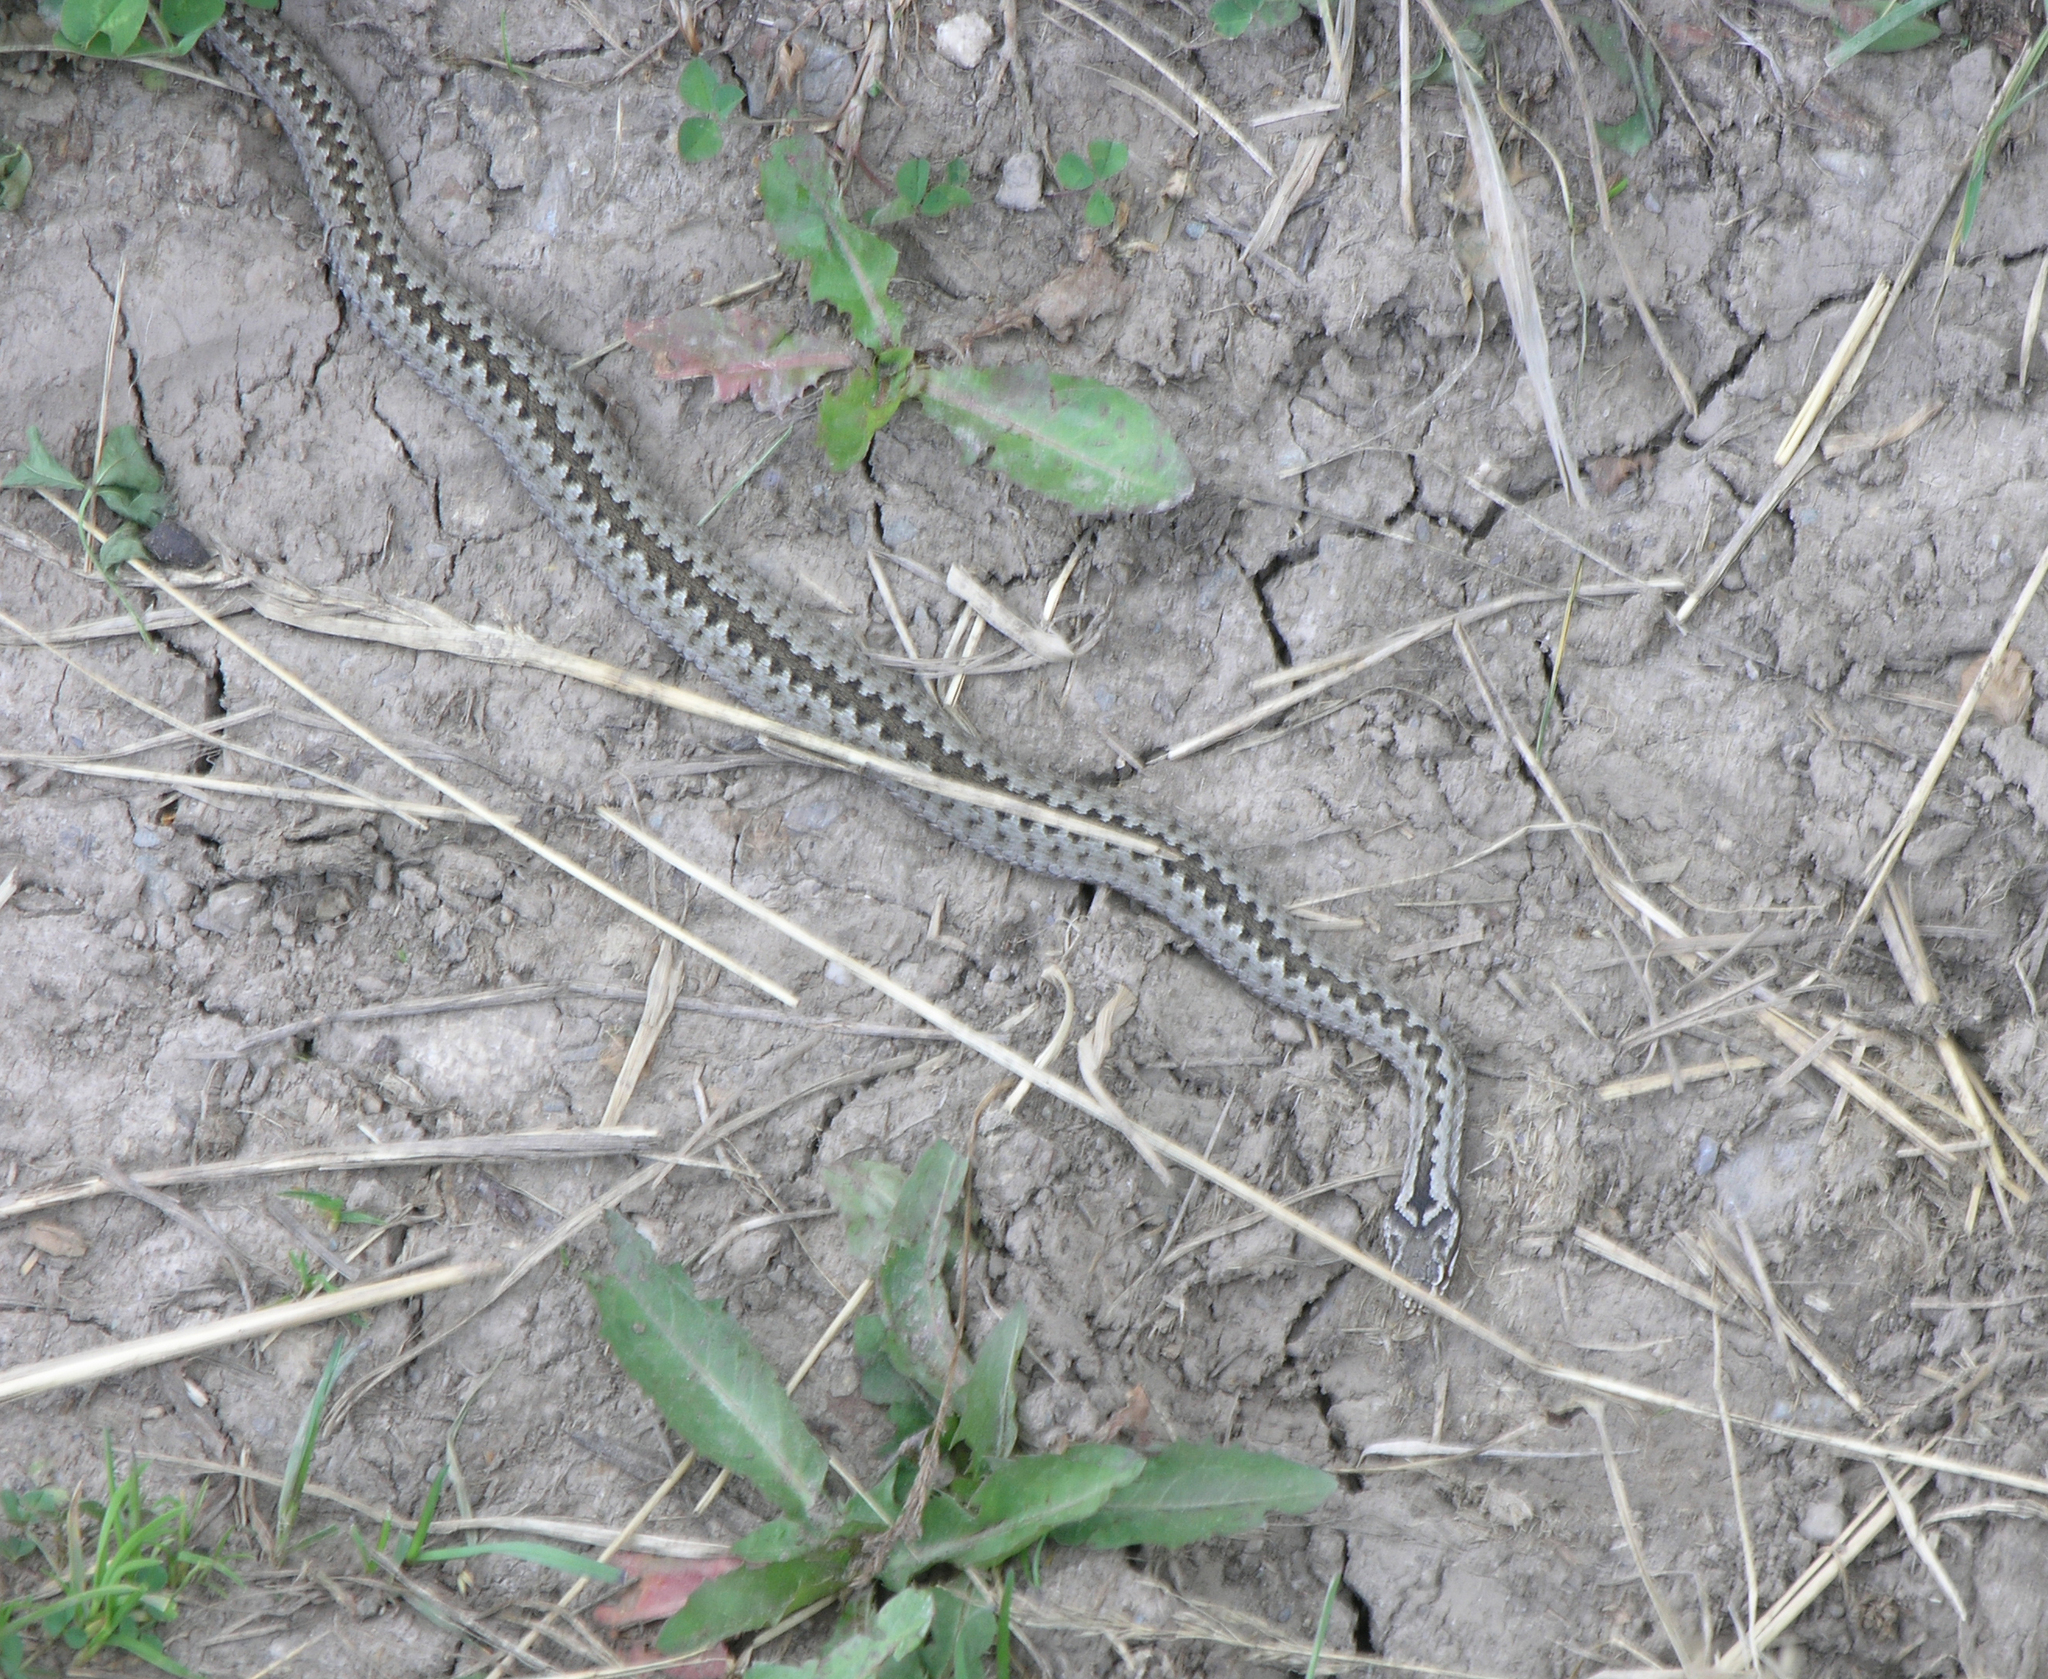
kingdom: Animalia
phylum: Chordata
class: Squamata
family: Viperidae
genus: Vipera
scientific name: Vipera altaica
